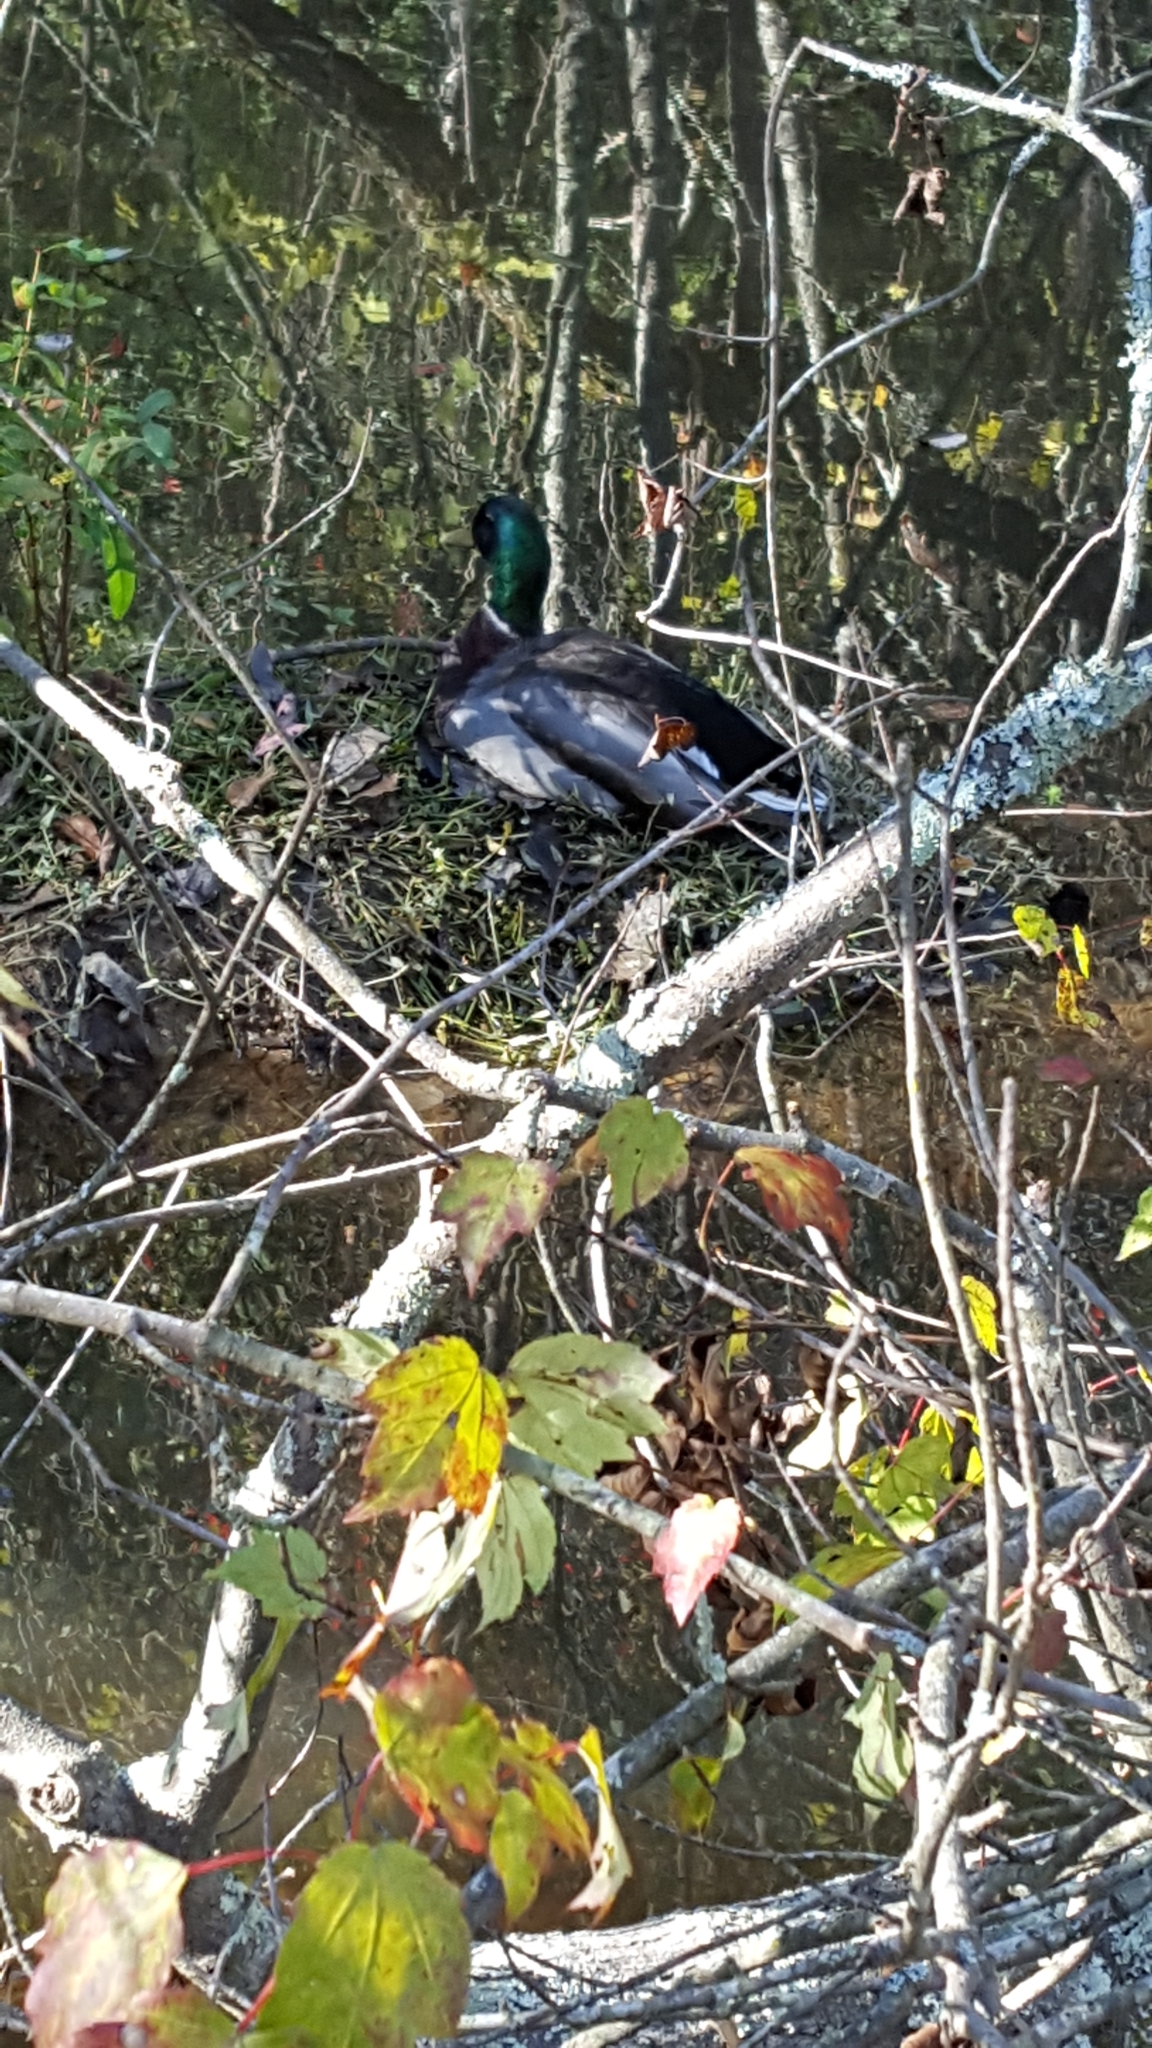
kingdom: Animalia
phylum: Chordata
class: Aves
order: Anseriformes
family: Anatidae
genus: Anas
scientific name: Anas platyrhynchos
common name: Mallard
